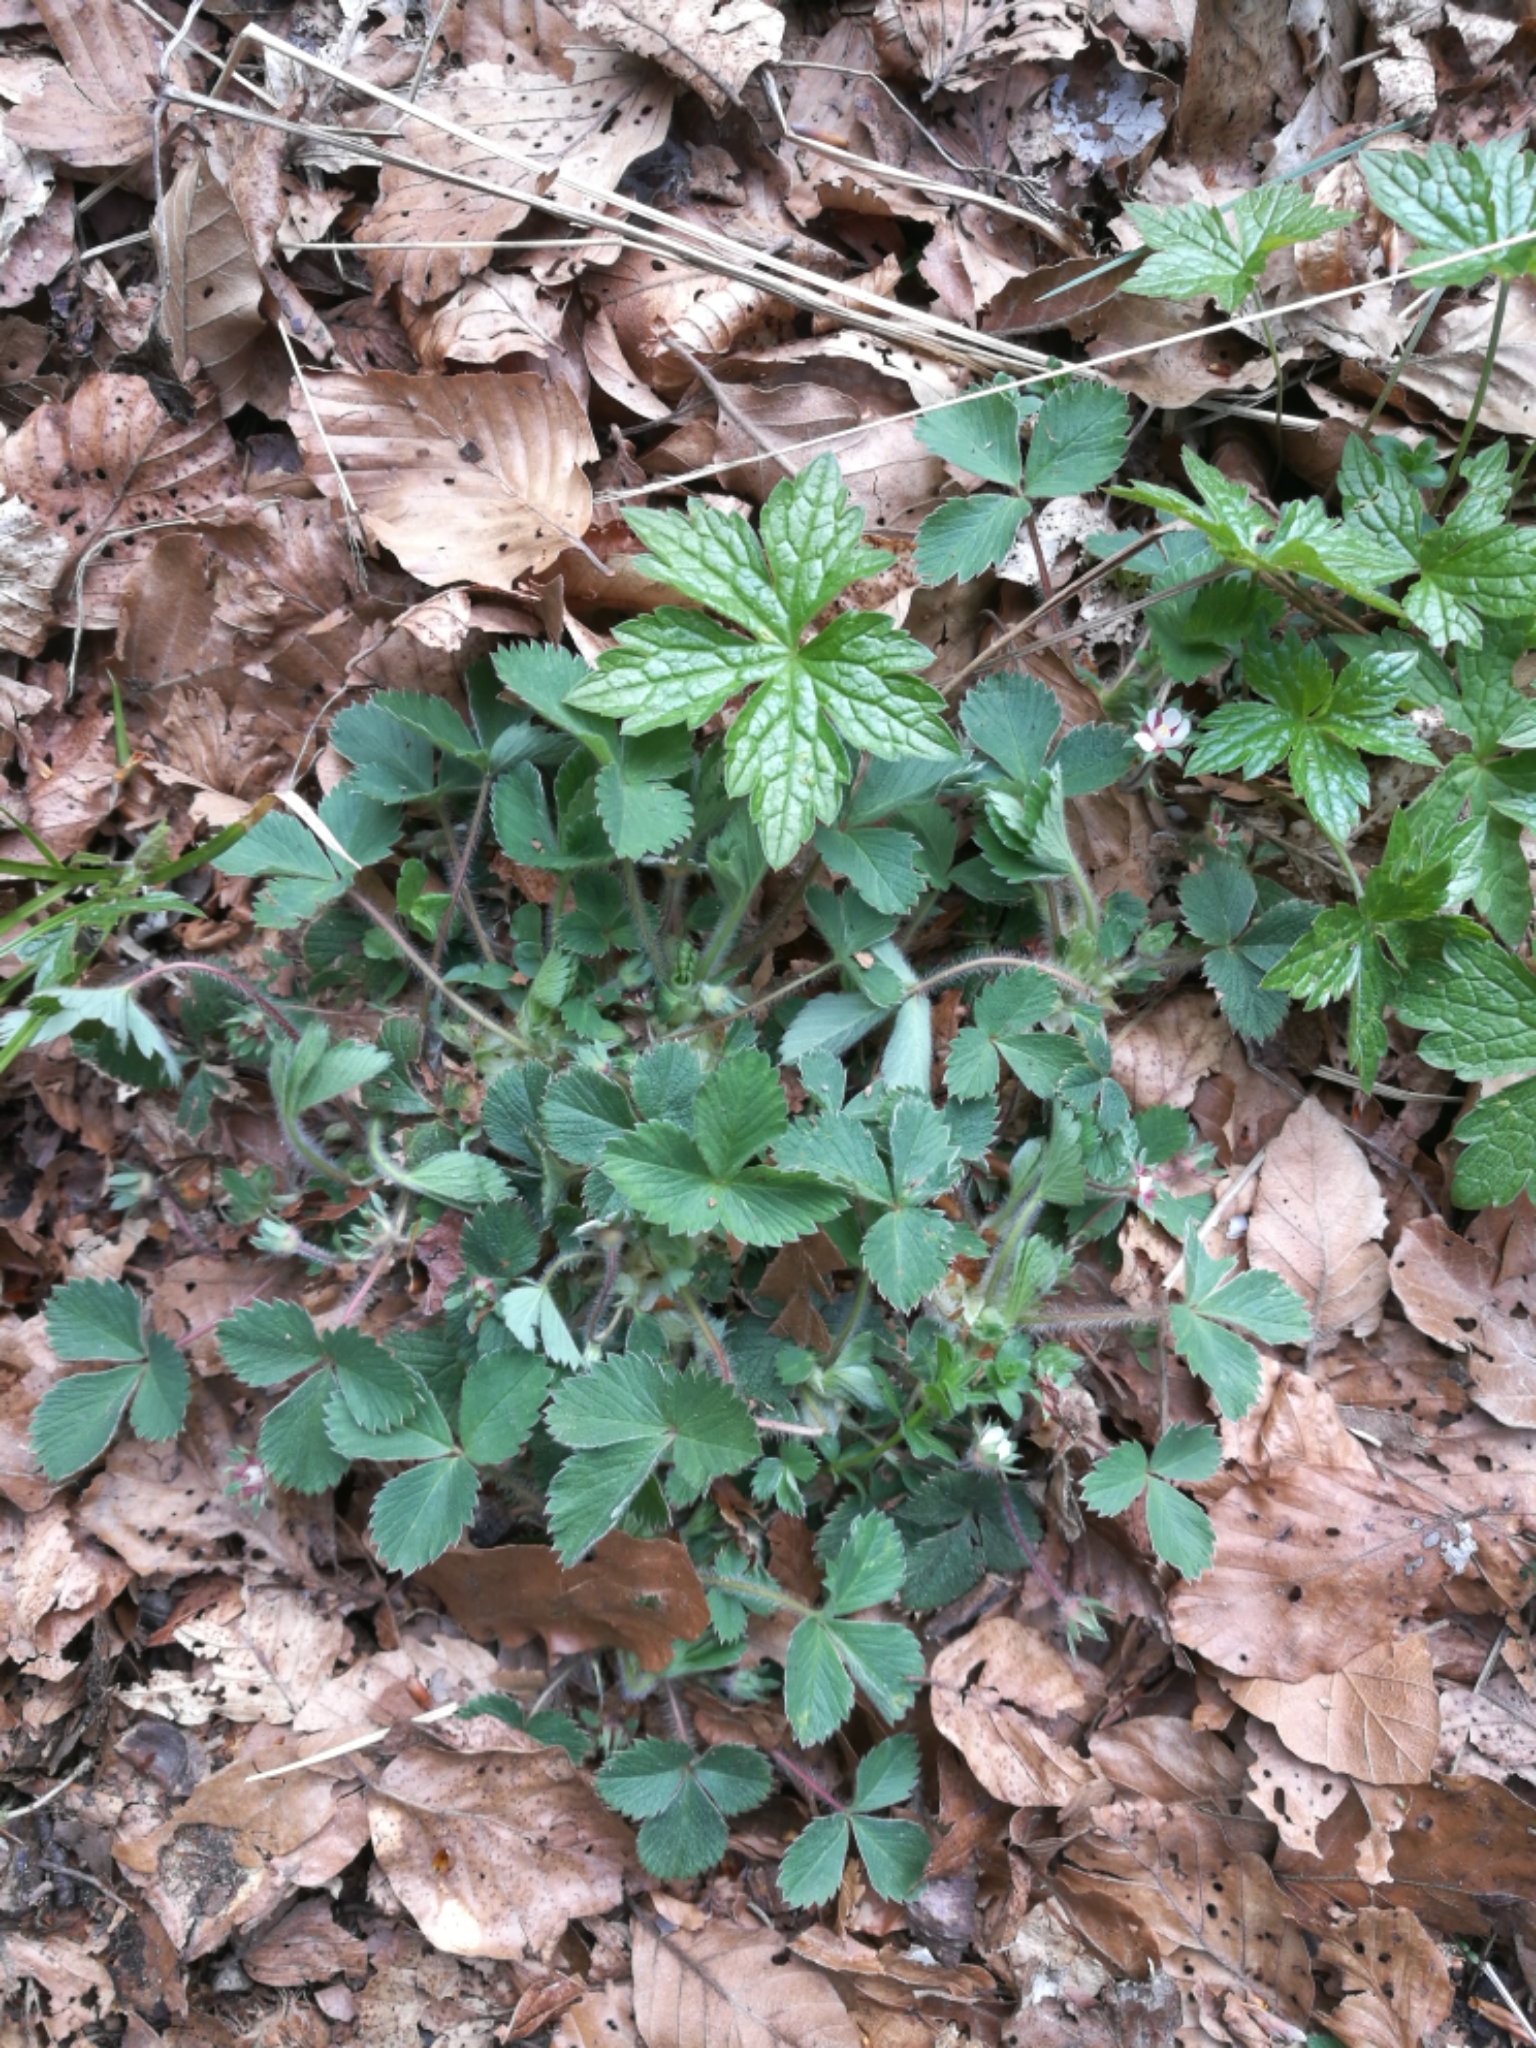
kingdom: Plantae
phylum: Tracheophyta
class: Magnoliopsida
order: Geraniales
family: Geraniaceae
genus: Geranium
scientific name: Geranium nodosum
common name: Knotted crane's-bill
